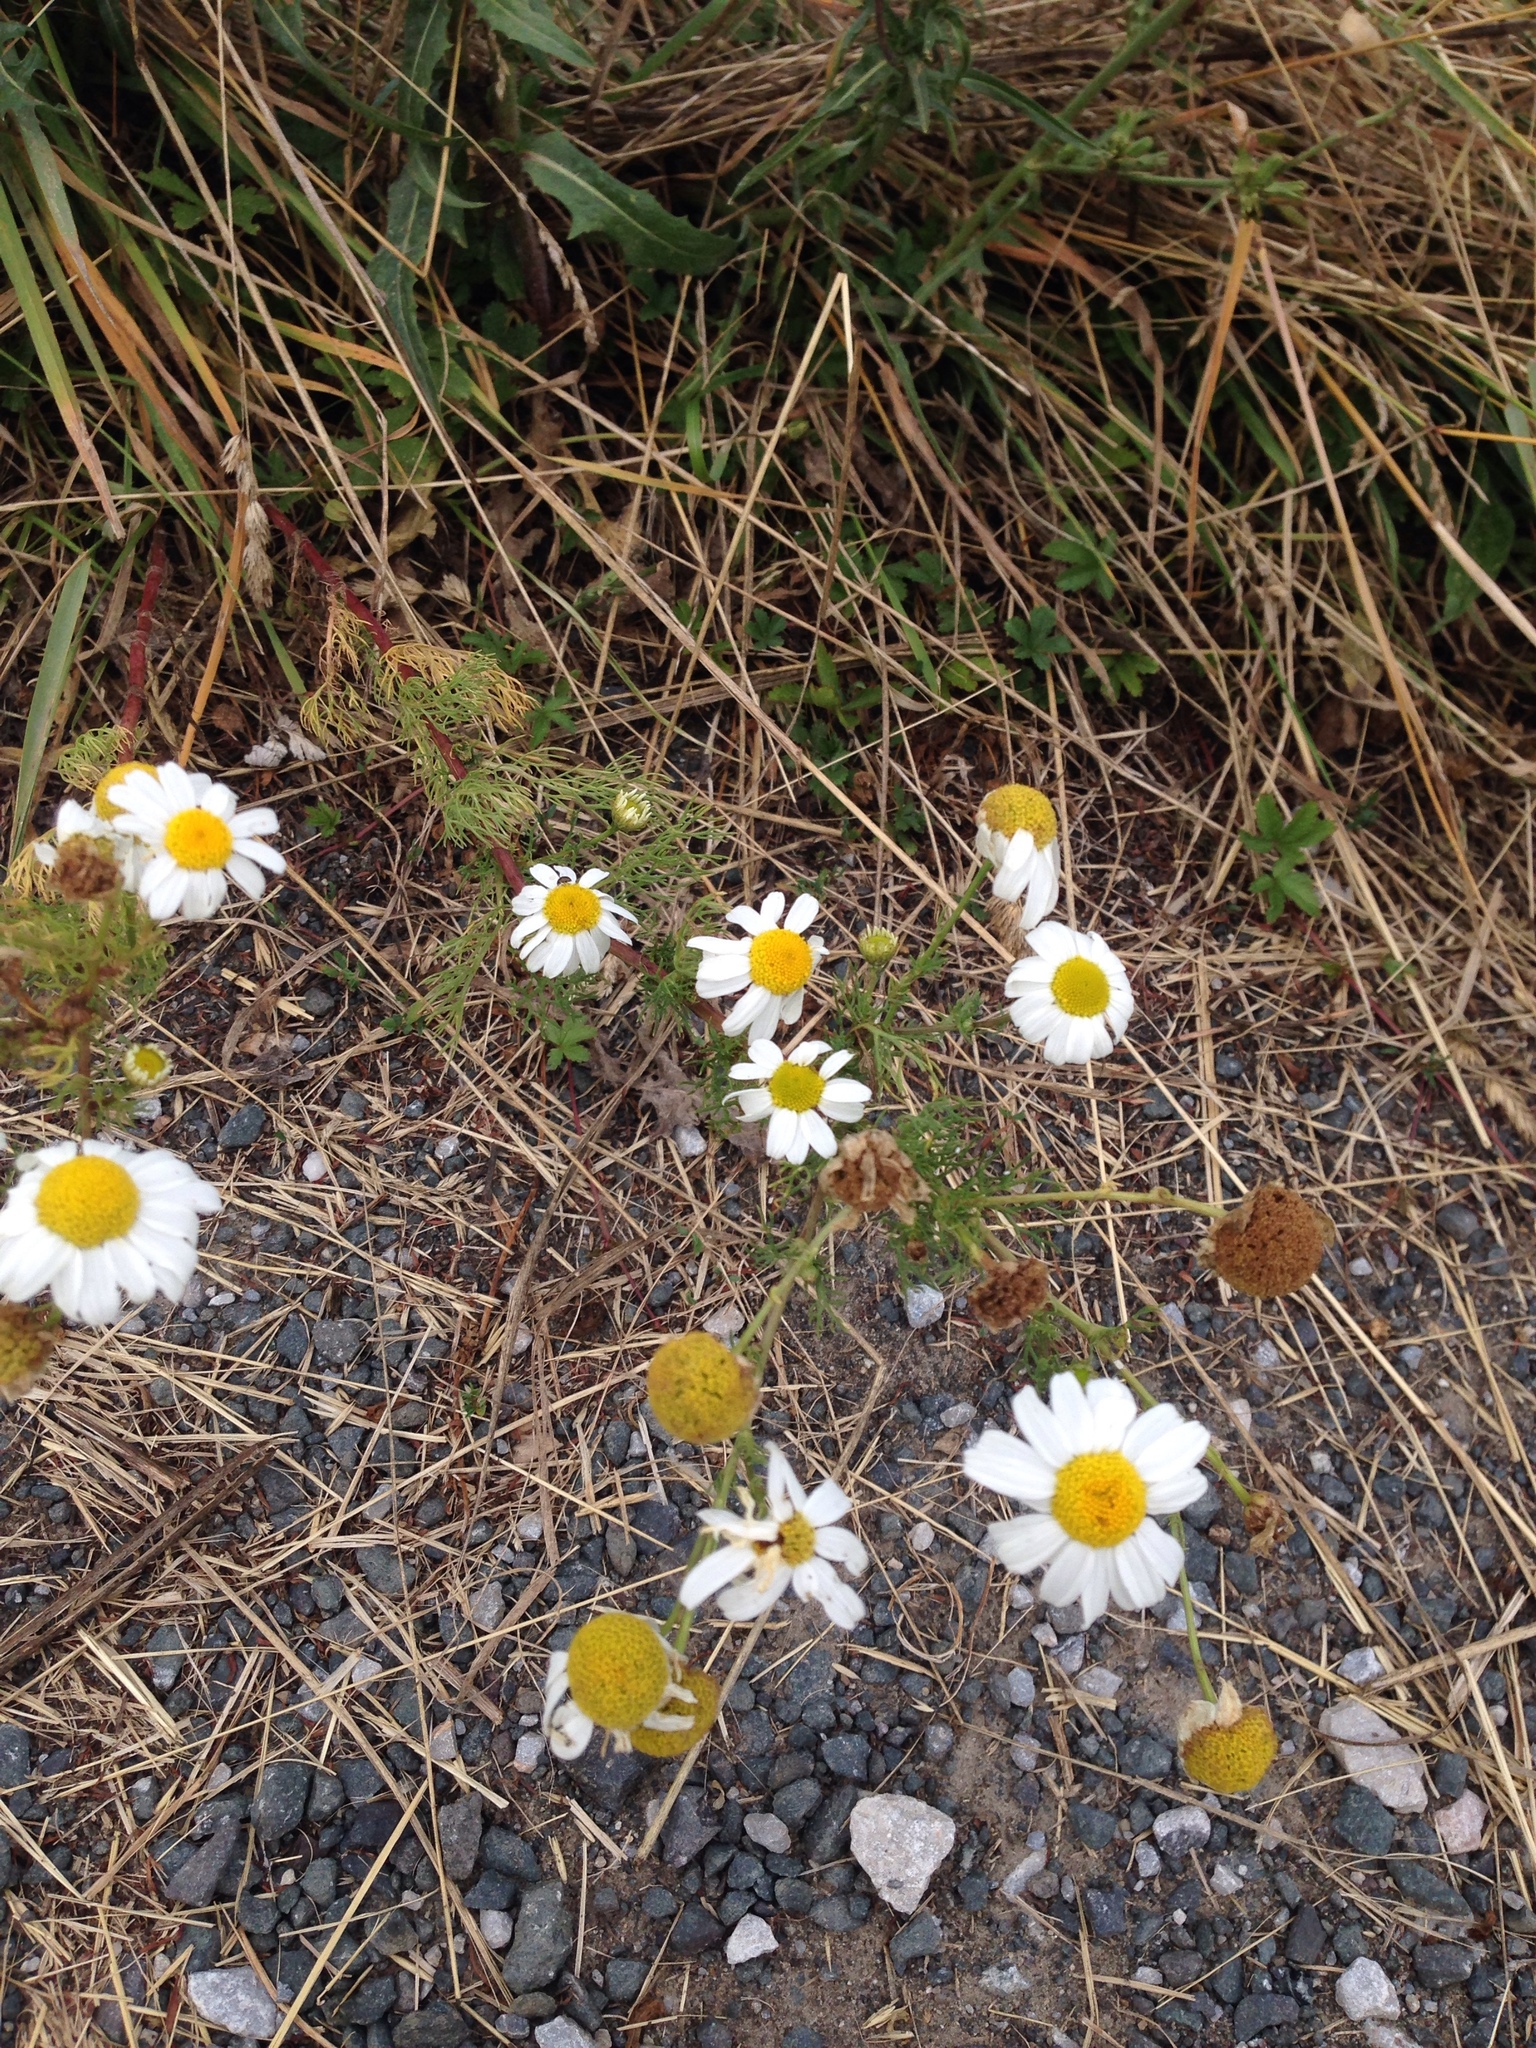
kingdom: Plantae
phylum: Tracheophyta
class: Magnoliopsida
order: Asterales
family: Asteraceae
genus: Tripleurospermum
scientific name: Tripleurospermum inodorum
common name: Scentless mayweed
